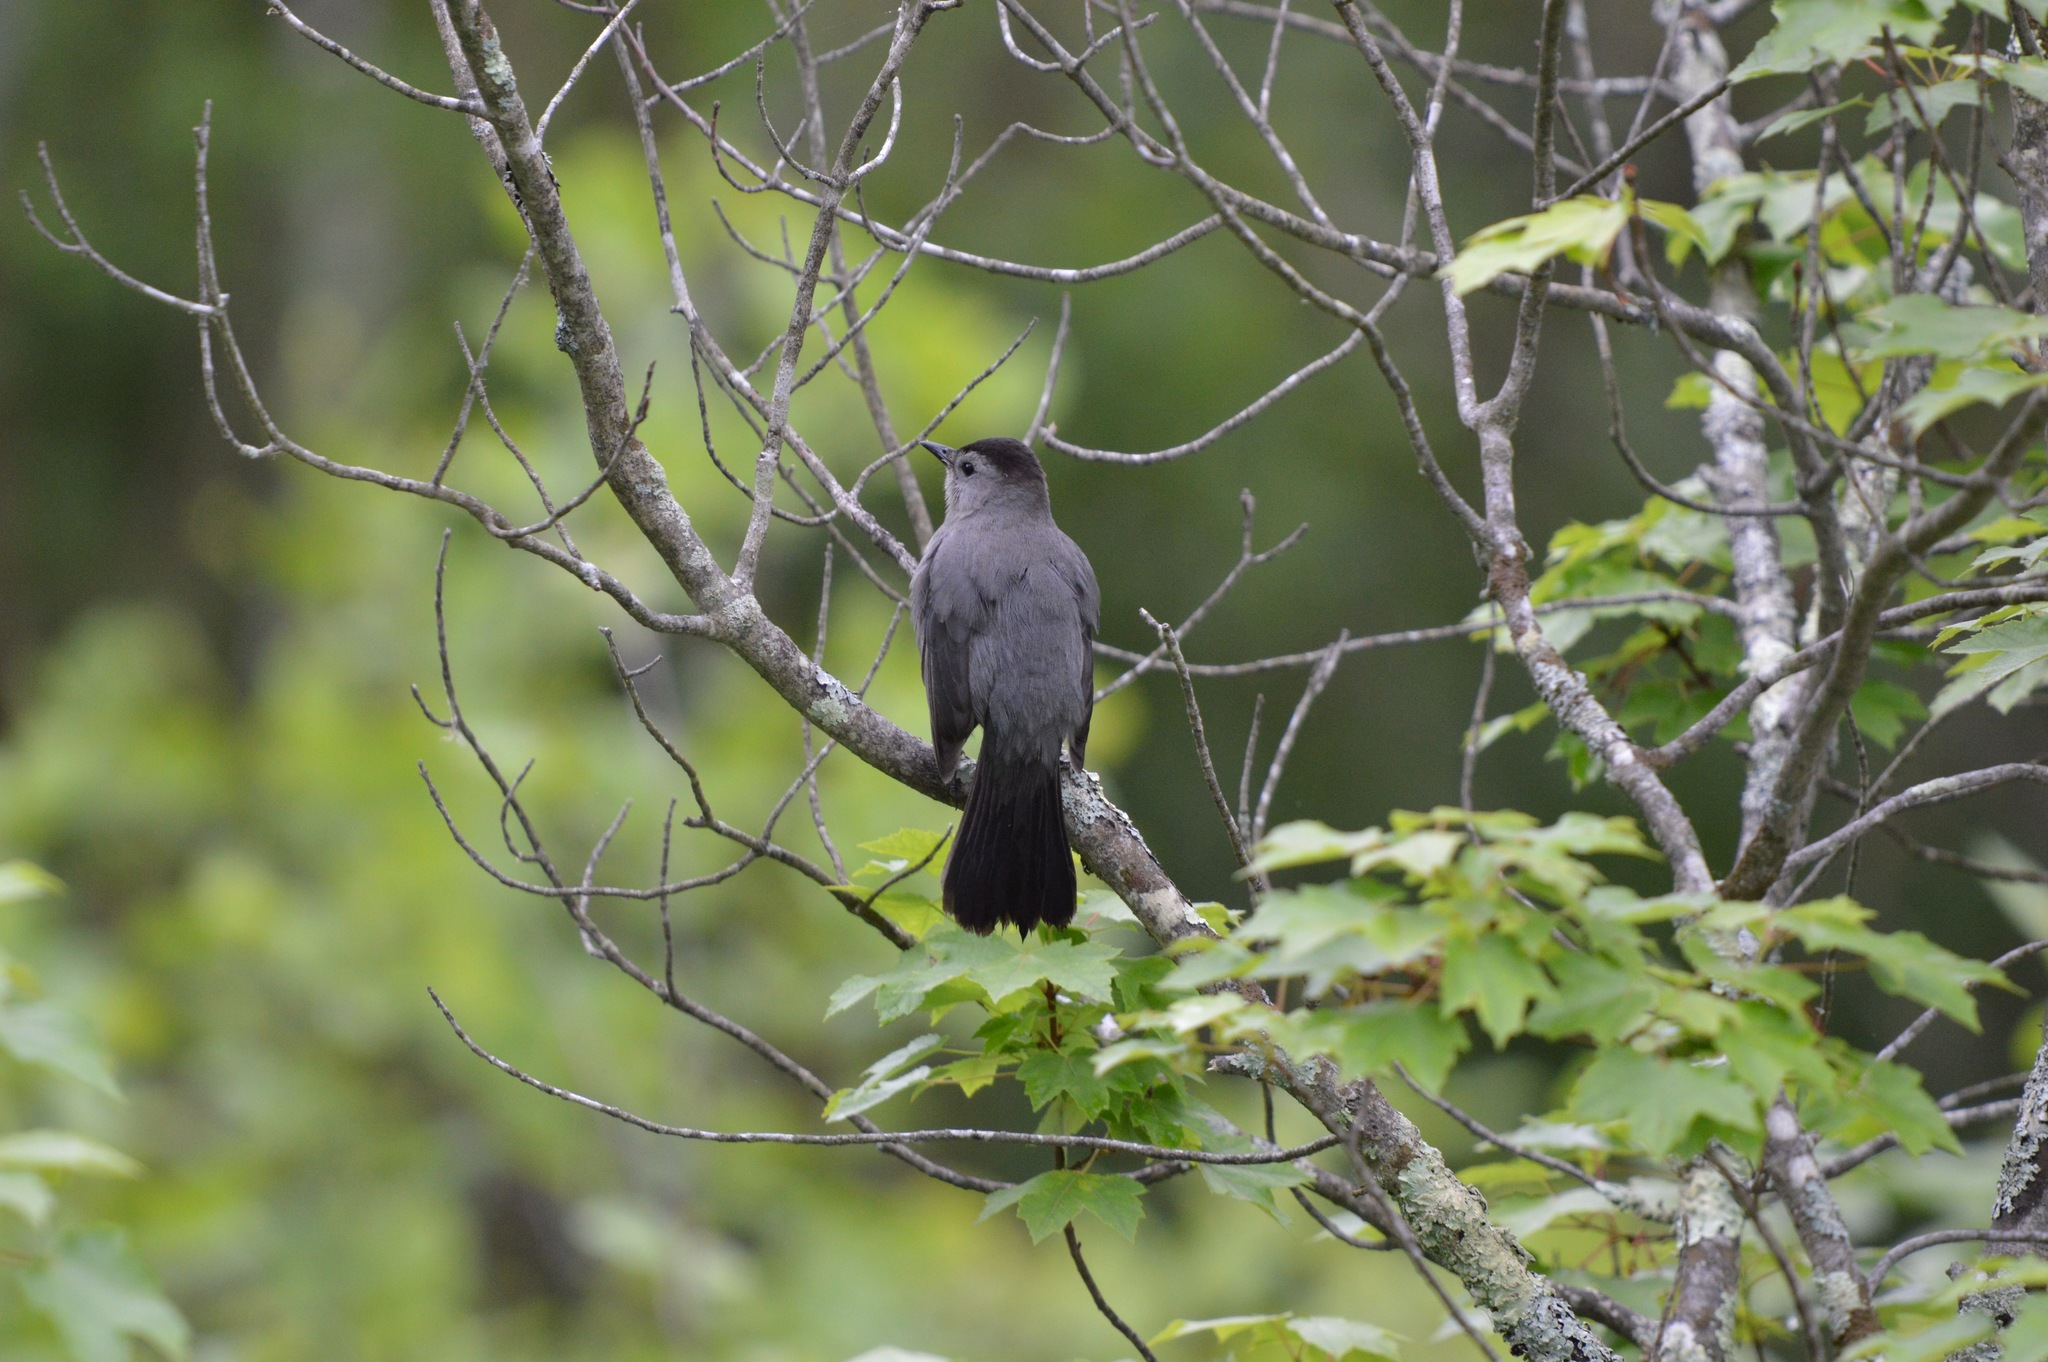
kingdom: Animalia
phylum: Chordata
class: Aves
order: Passeriformes
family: Mimidae
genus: Dumetella
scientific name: Dumetella carolinensis
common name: Gray catbird
